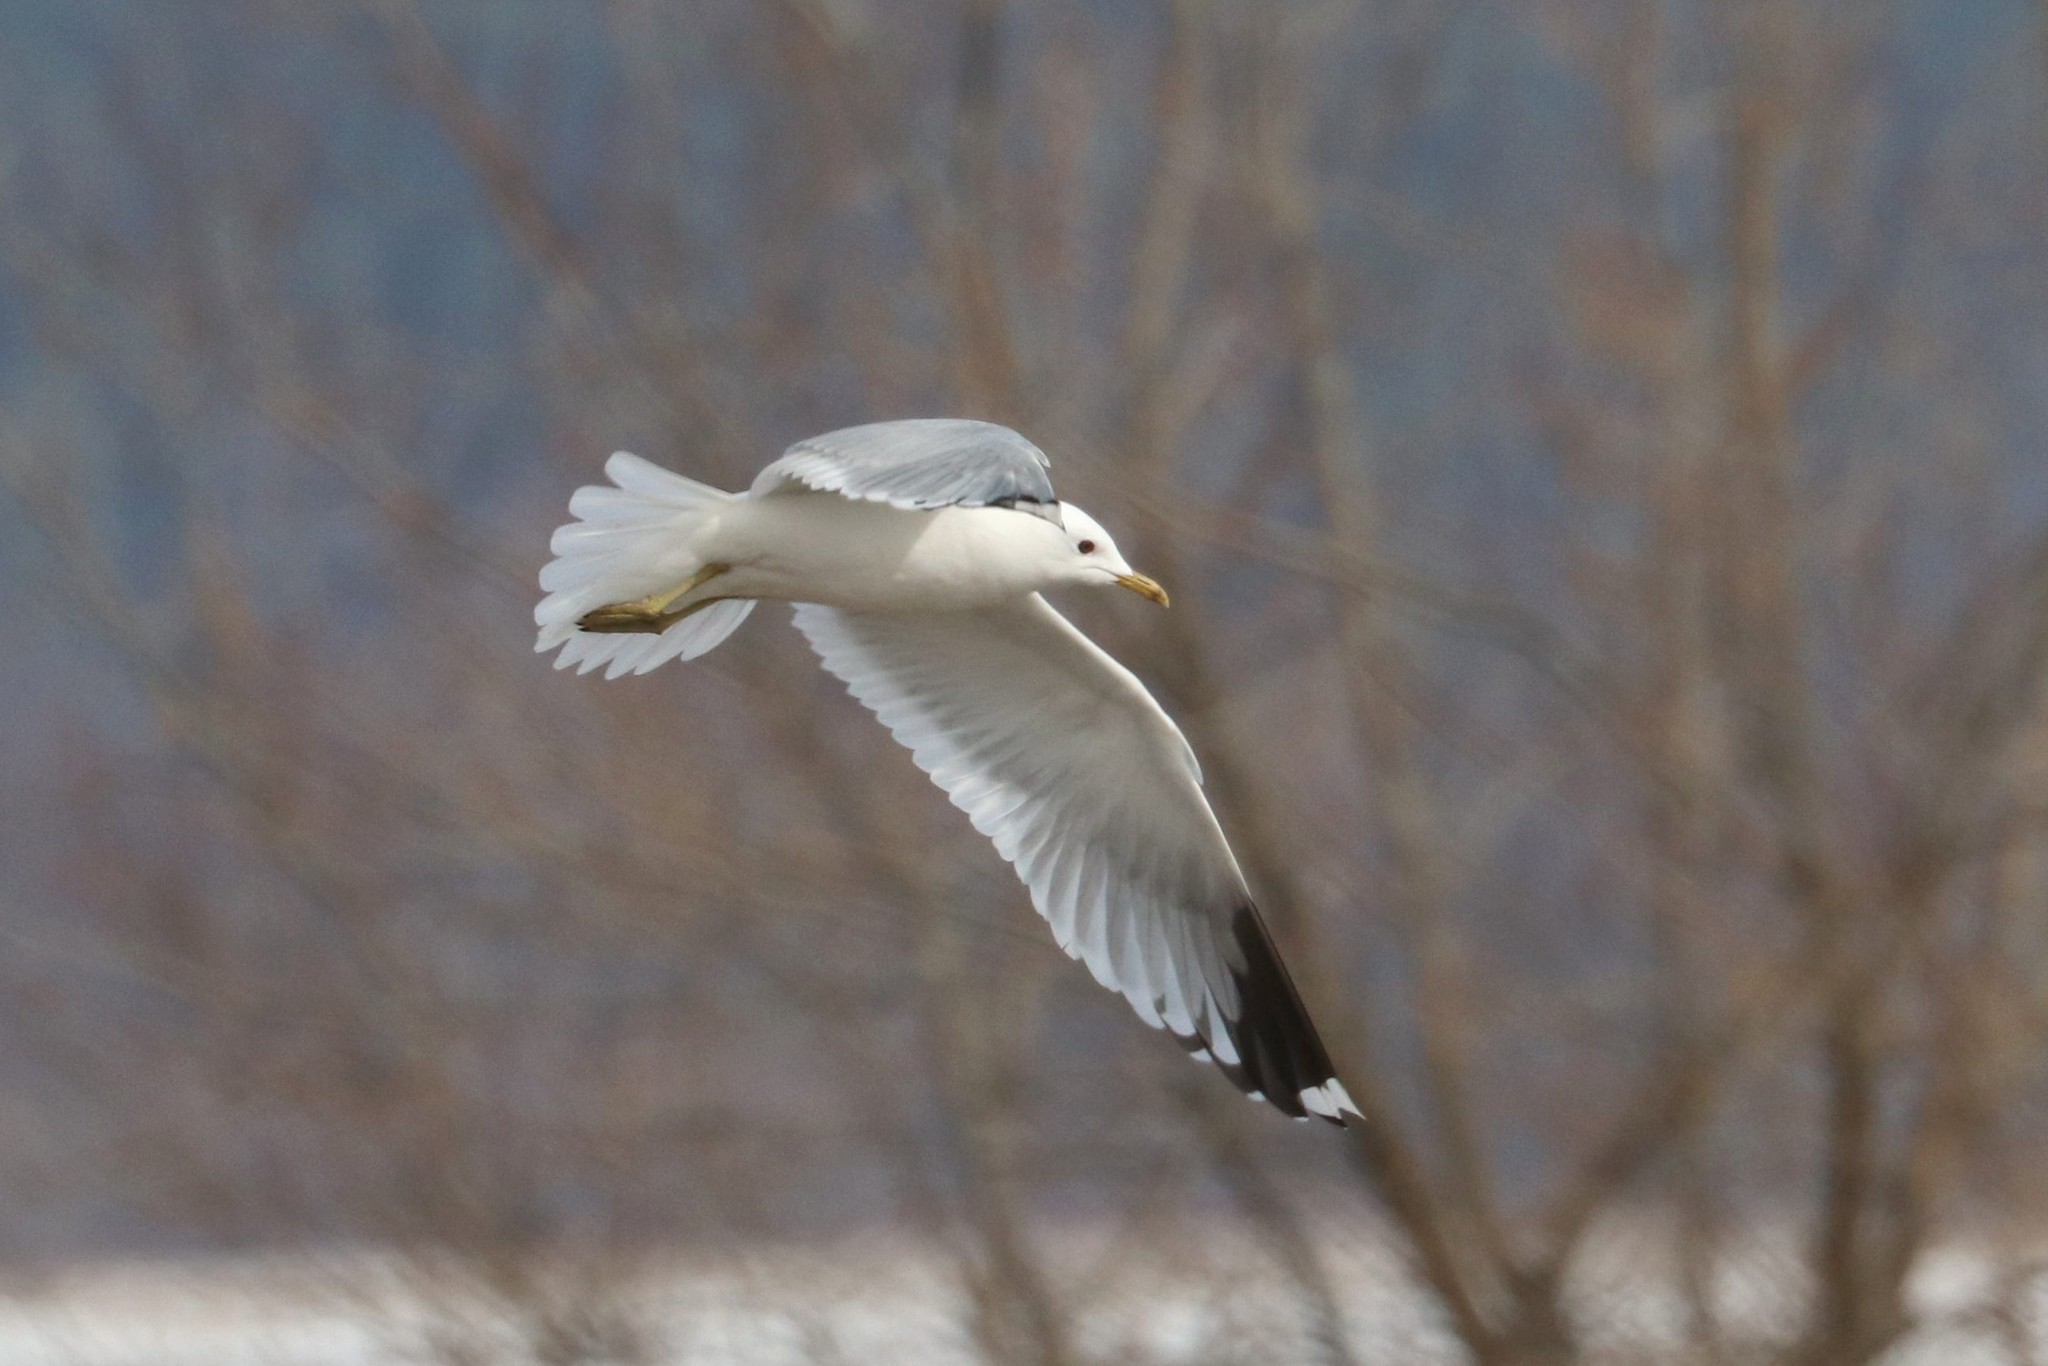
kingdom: Animalia
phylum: Chordata
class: Aves
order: Charadriiformes
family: Laridae
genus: Larus
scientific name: Larus canus
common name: Mew gull
